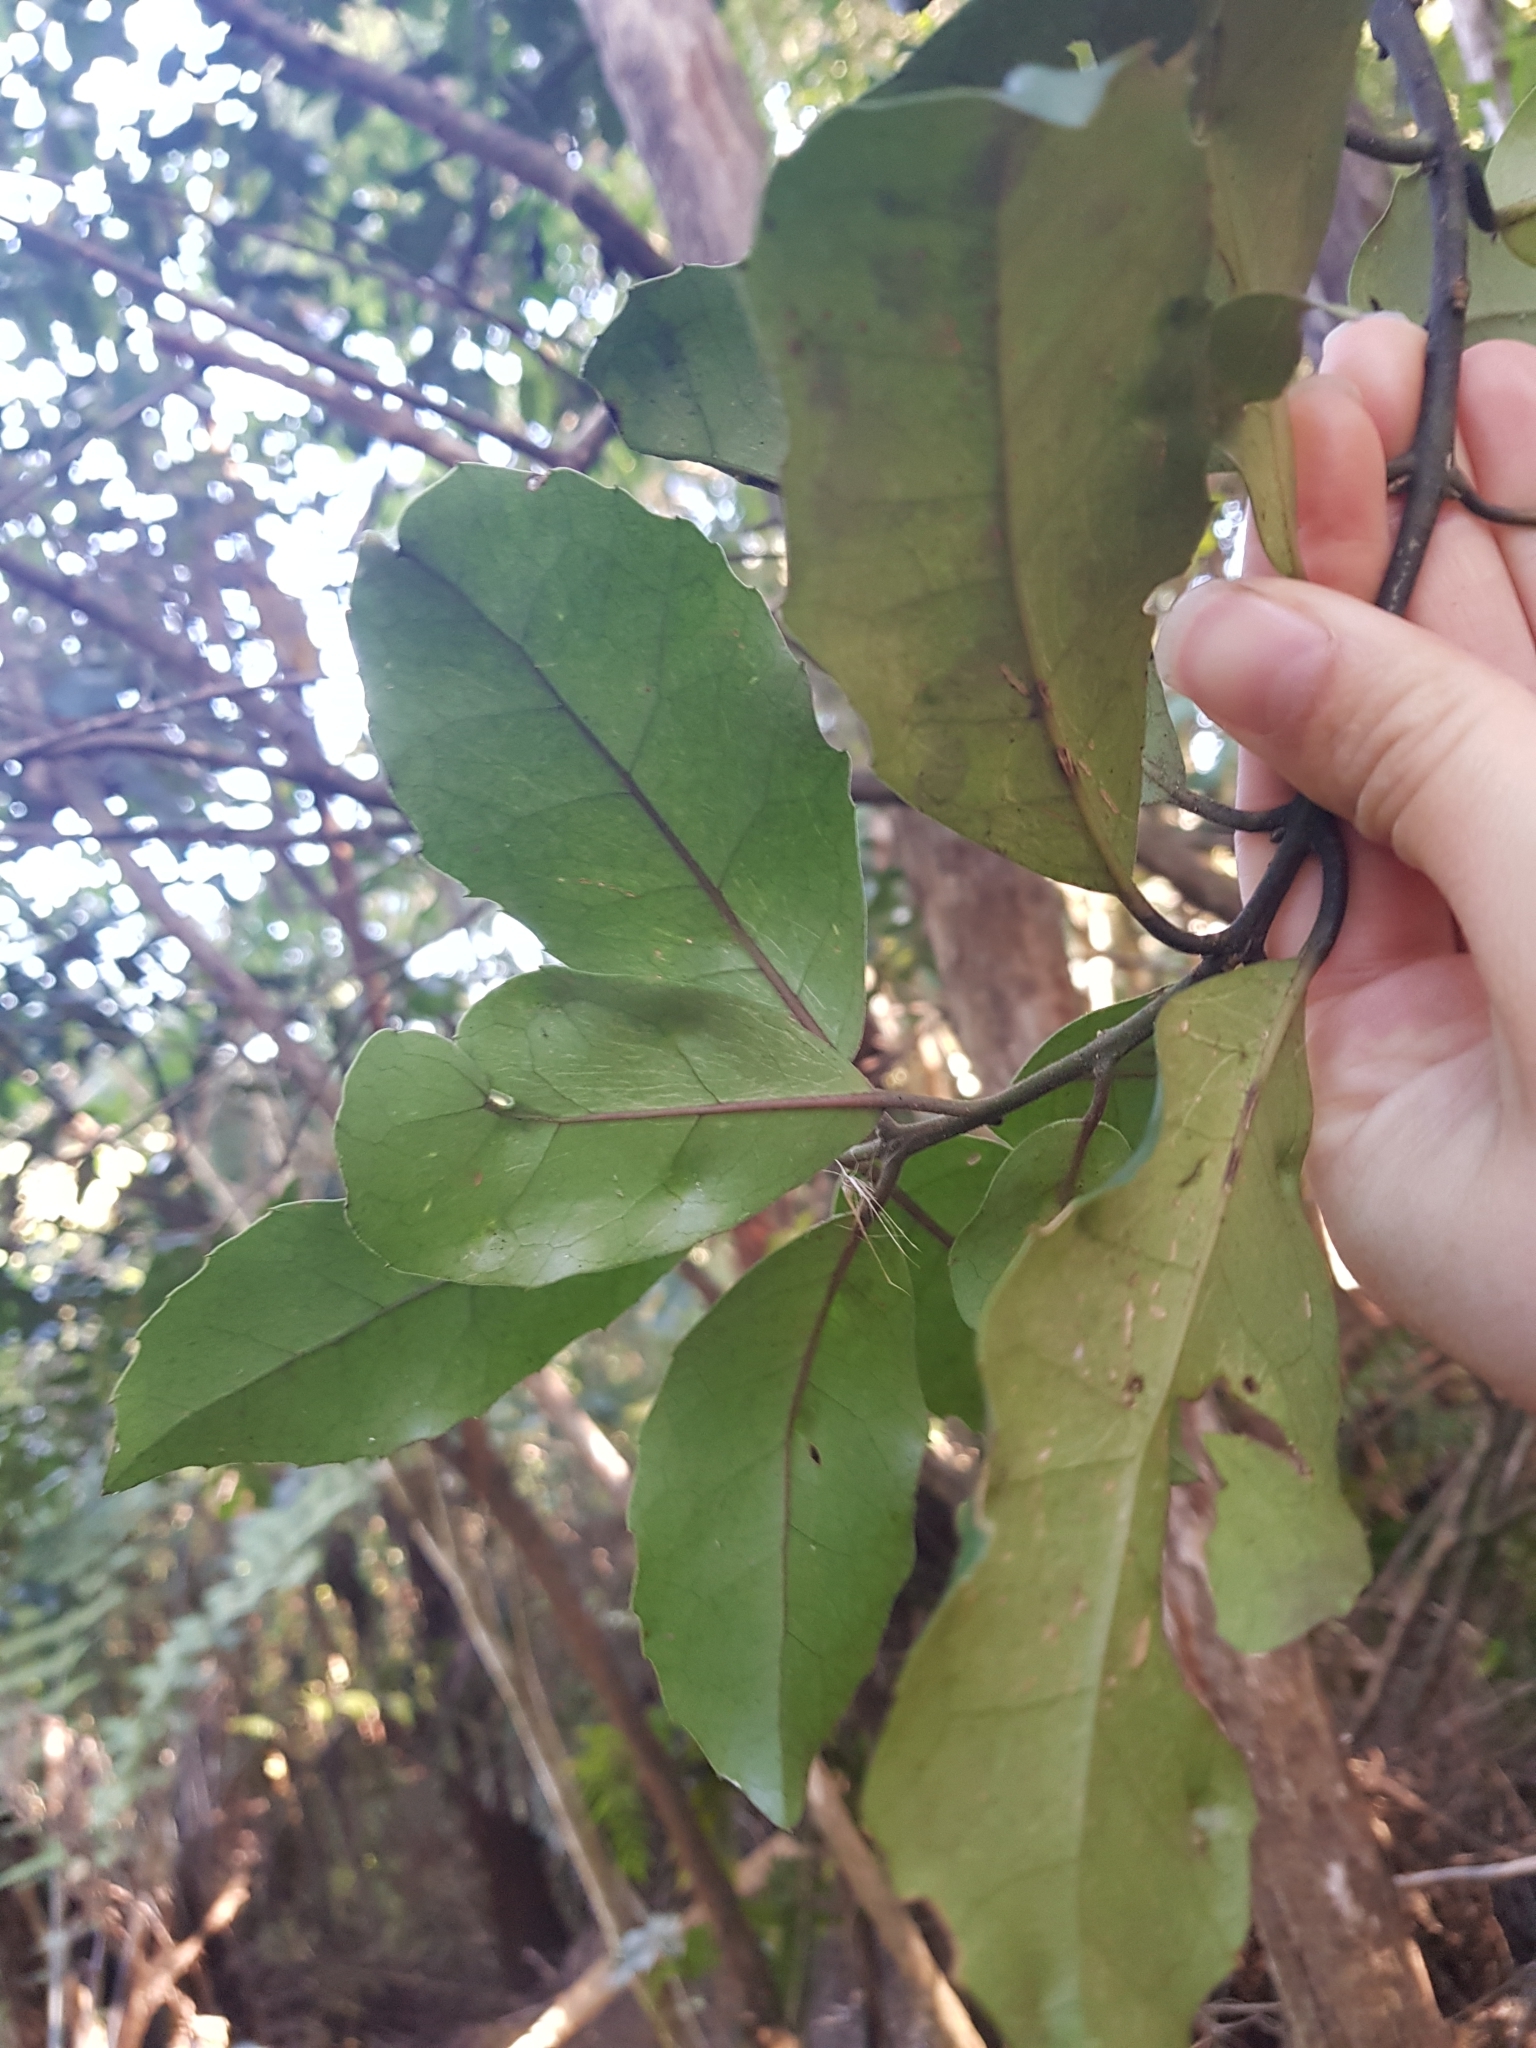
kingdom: Plantae
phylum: Tracheophyta
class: Magnoliopsida
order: Laurales
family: Monimiaceae
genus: Hedycarya
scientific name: Hedycarya arborea
